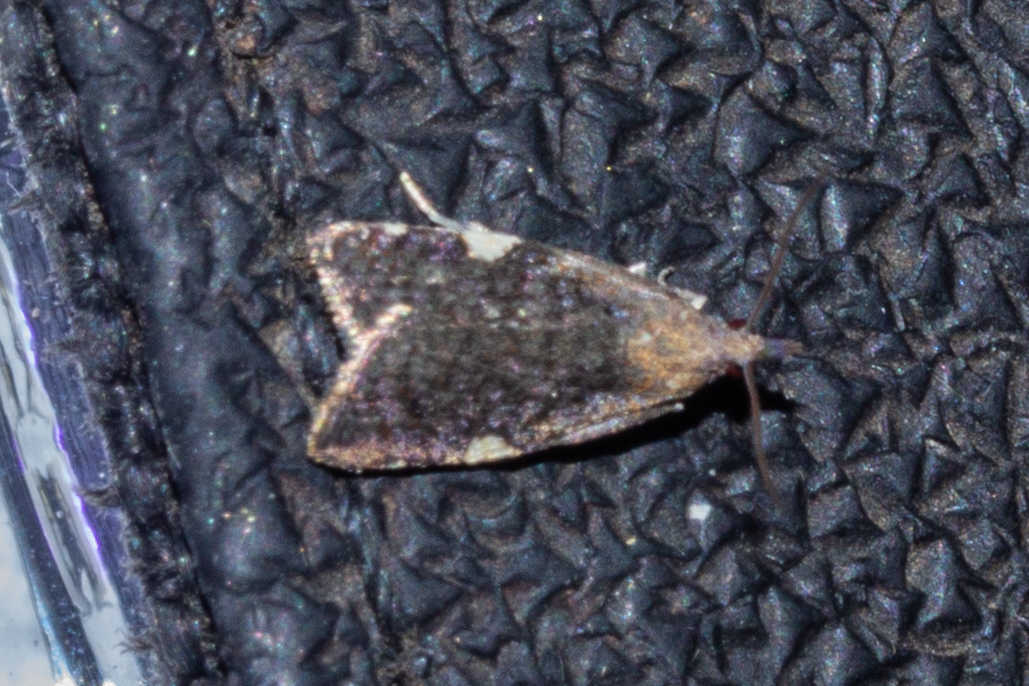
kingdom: Animalia
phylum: Arthropoda
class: Insecta
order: Lepidoptera
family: Tortricidae
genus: Catamacta
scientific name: Catamacta gavisana
